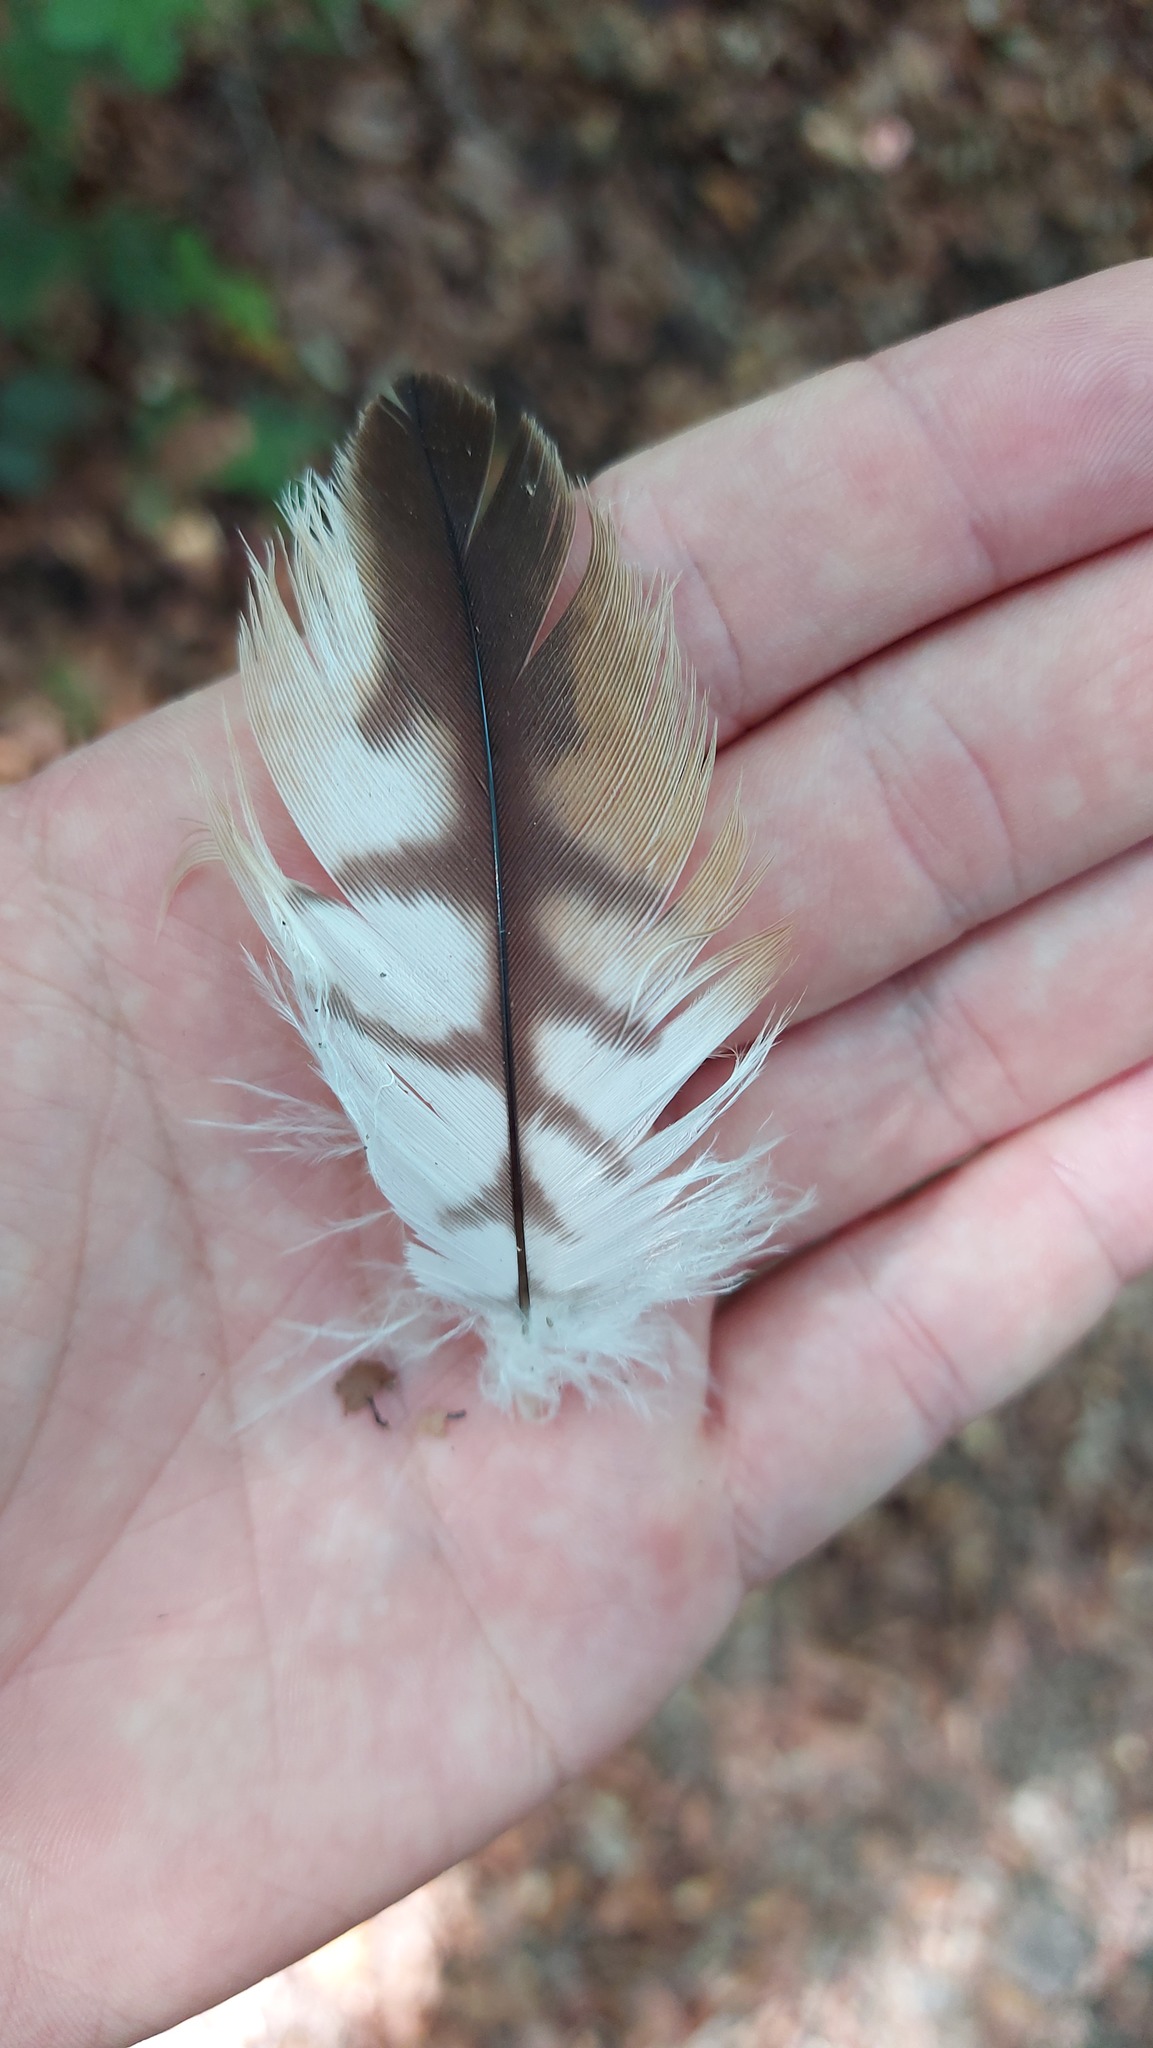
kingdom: Animalia
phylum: Chordata
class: Aves
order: Accipitriformes
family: Accipitridae
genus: Milvus
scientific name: Milvus milvus
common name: Red kite
